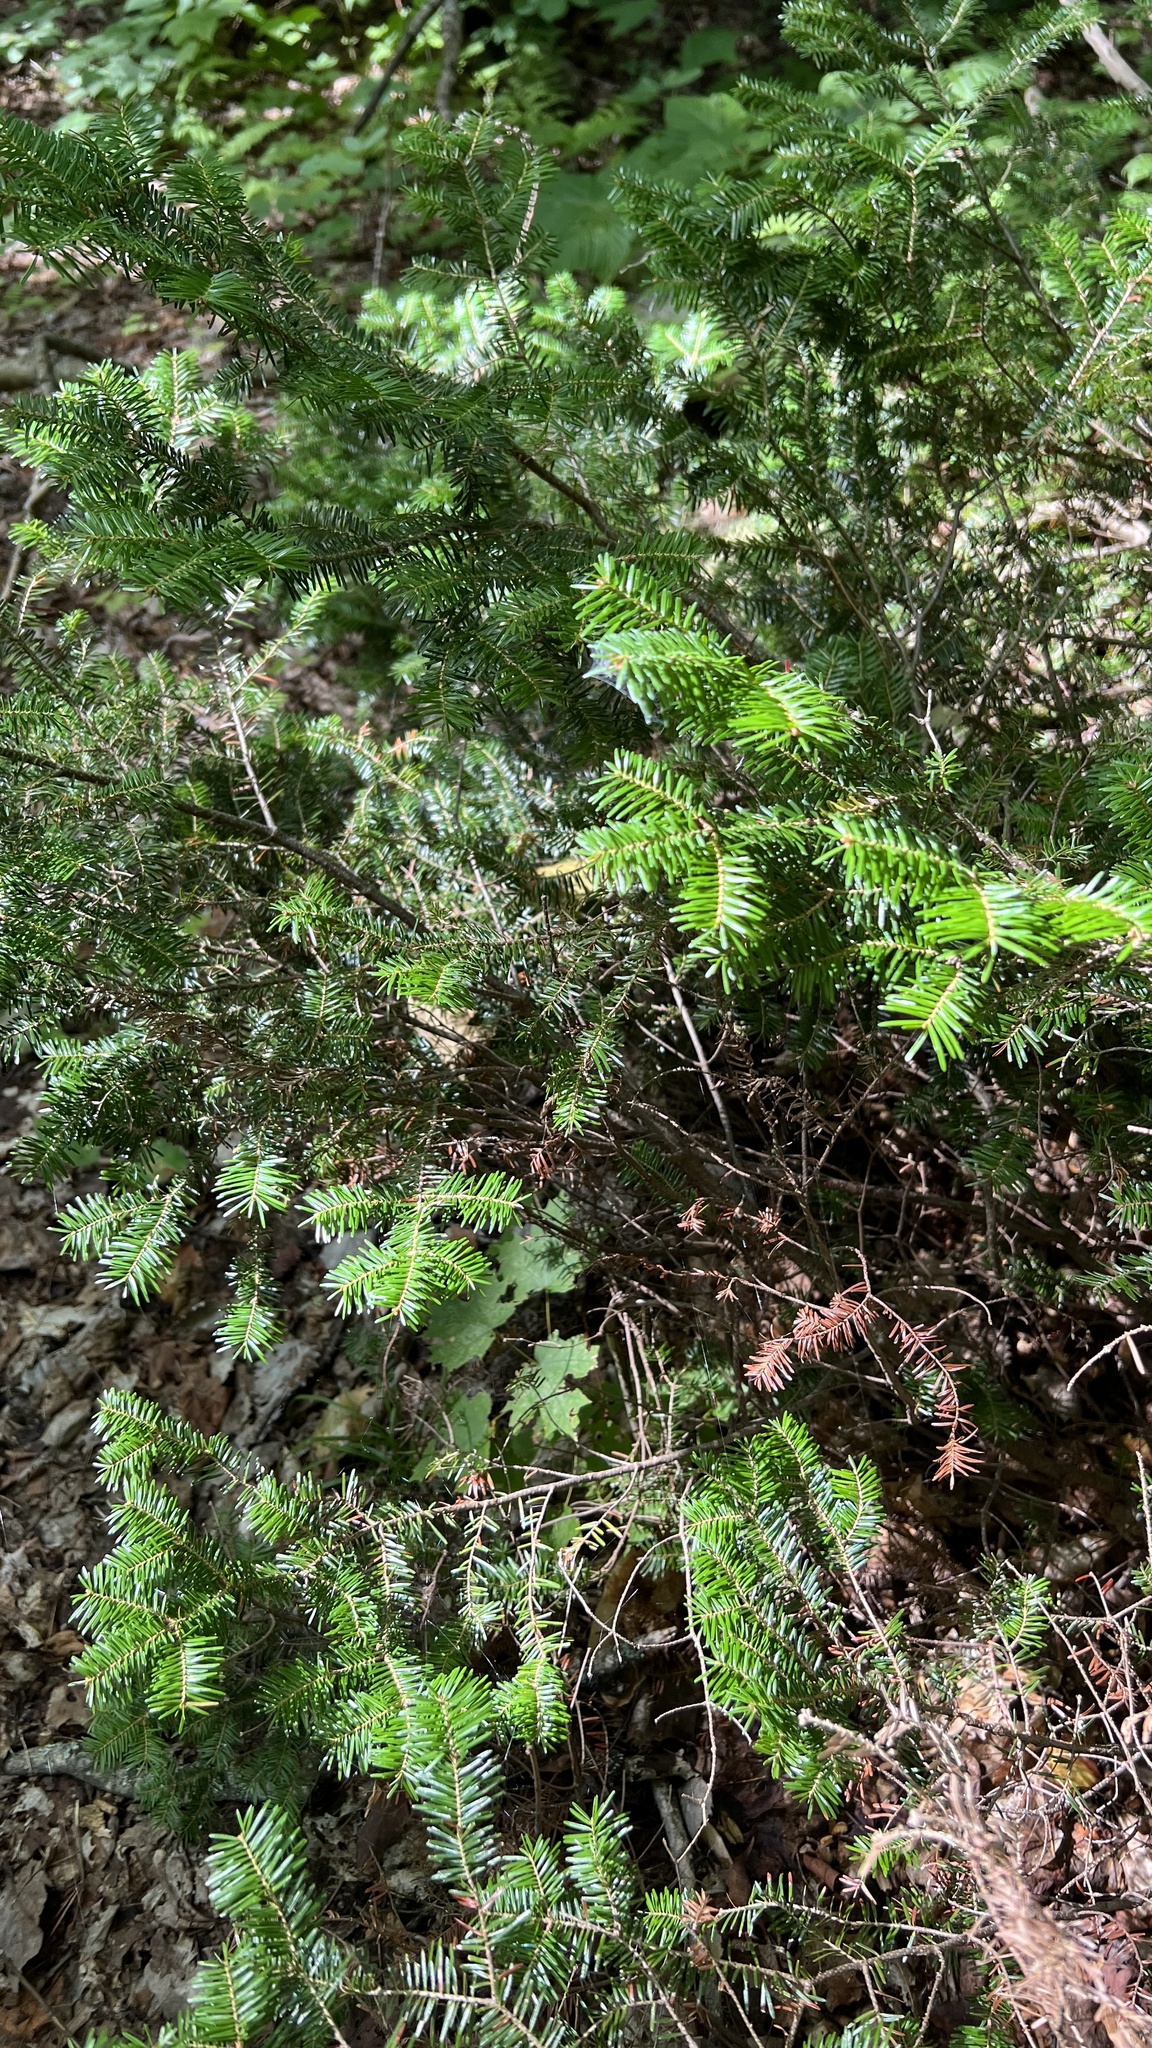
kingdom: Plantae
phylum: Tracheophyta
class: Pinopsida
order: Pinales
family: Pinaceae
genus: Abies
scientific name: Abies balsamea
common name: Balsam fir
